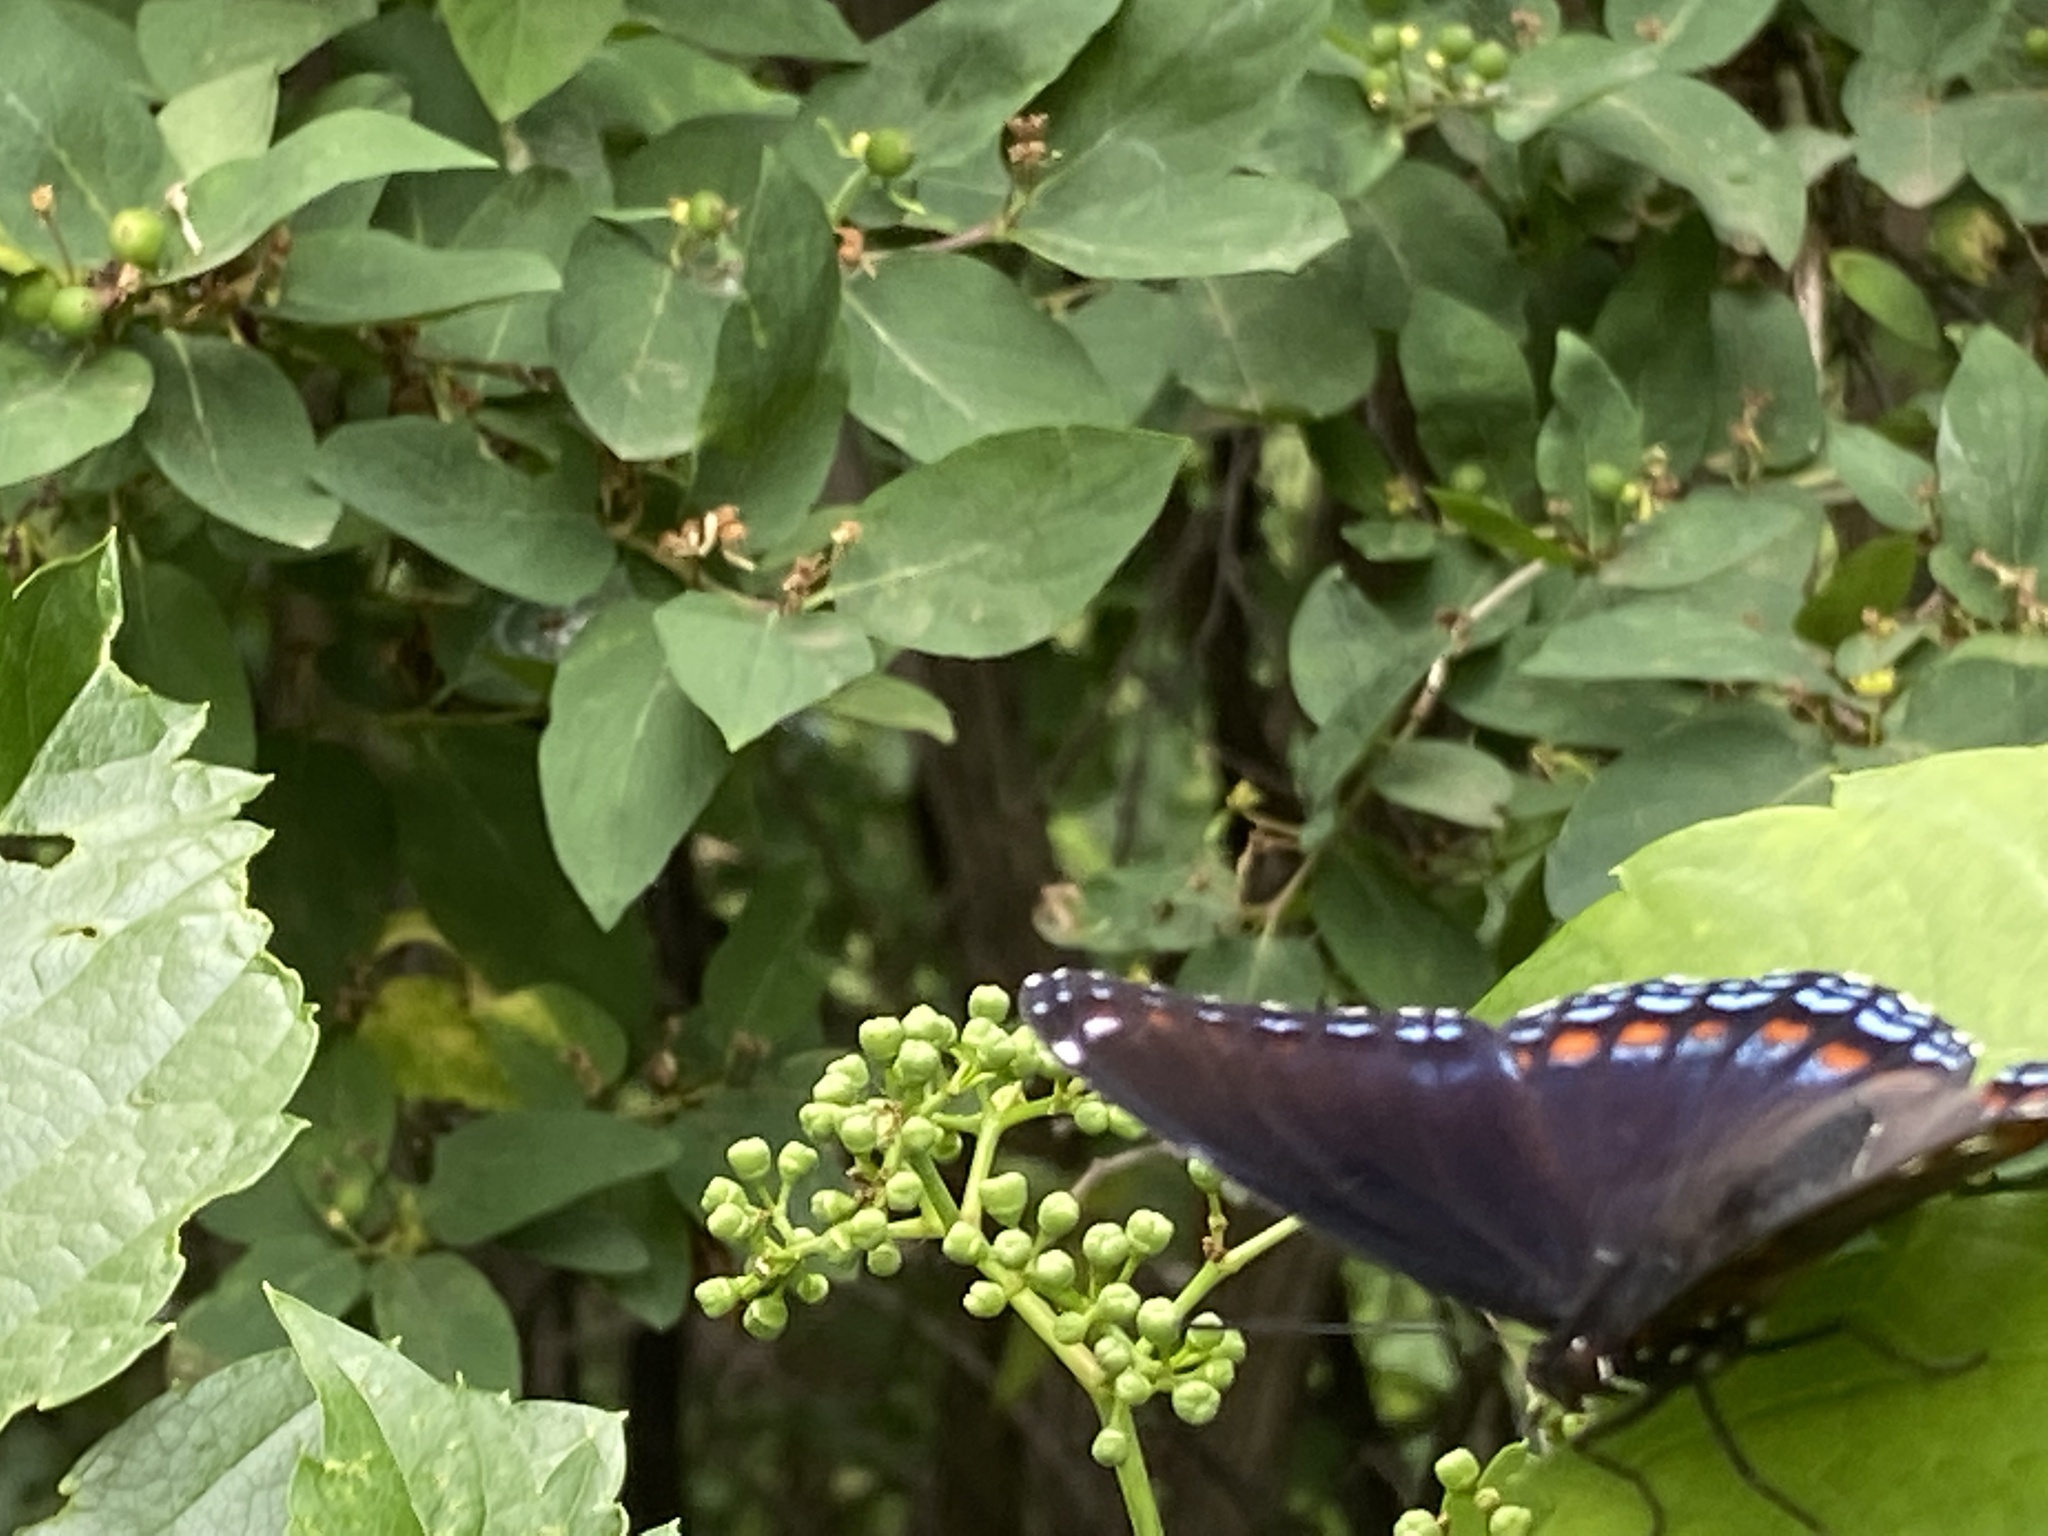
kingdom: Animalia
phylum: Arthropoda
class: Insecta
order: Lepidoptera
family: Nymphalidae
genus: Limenitis
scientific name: Limenitis arthemis
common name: Red-spotted admiral
